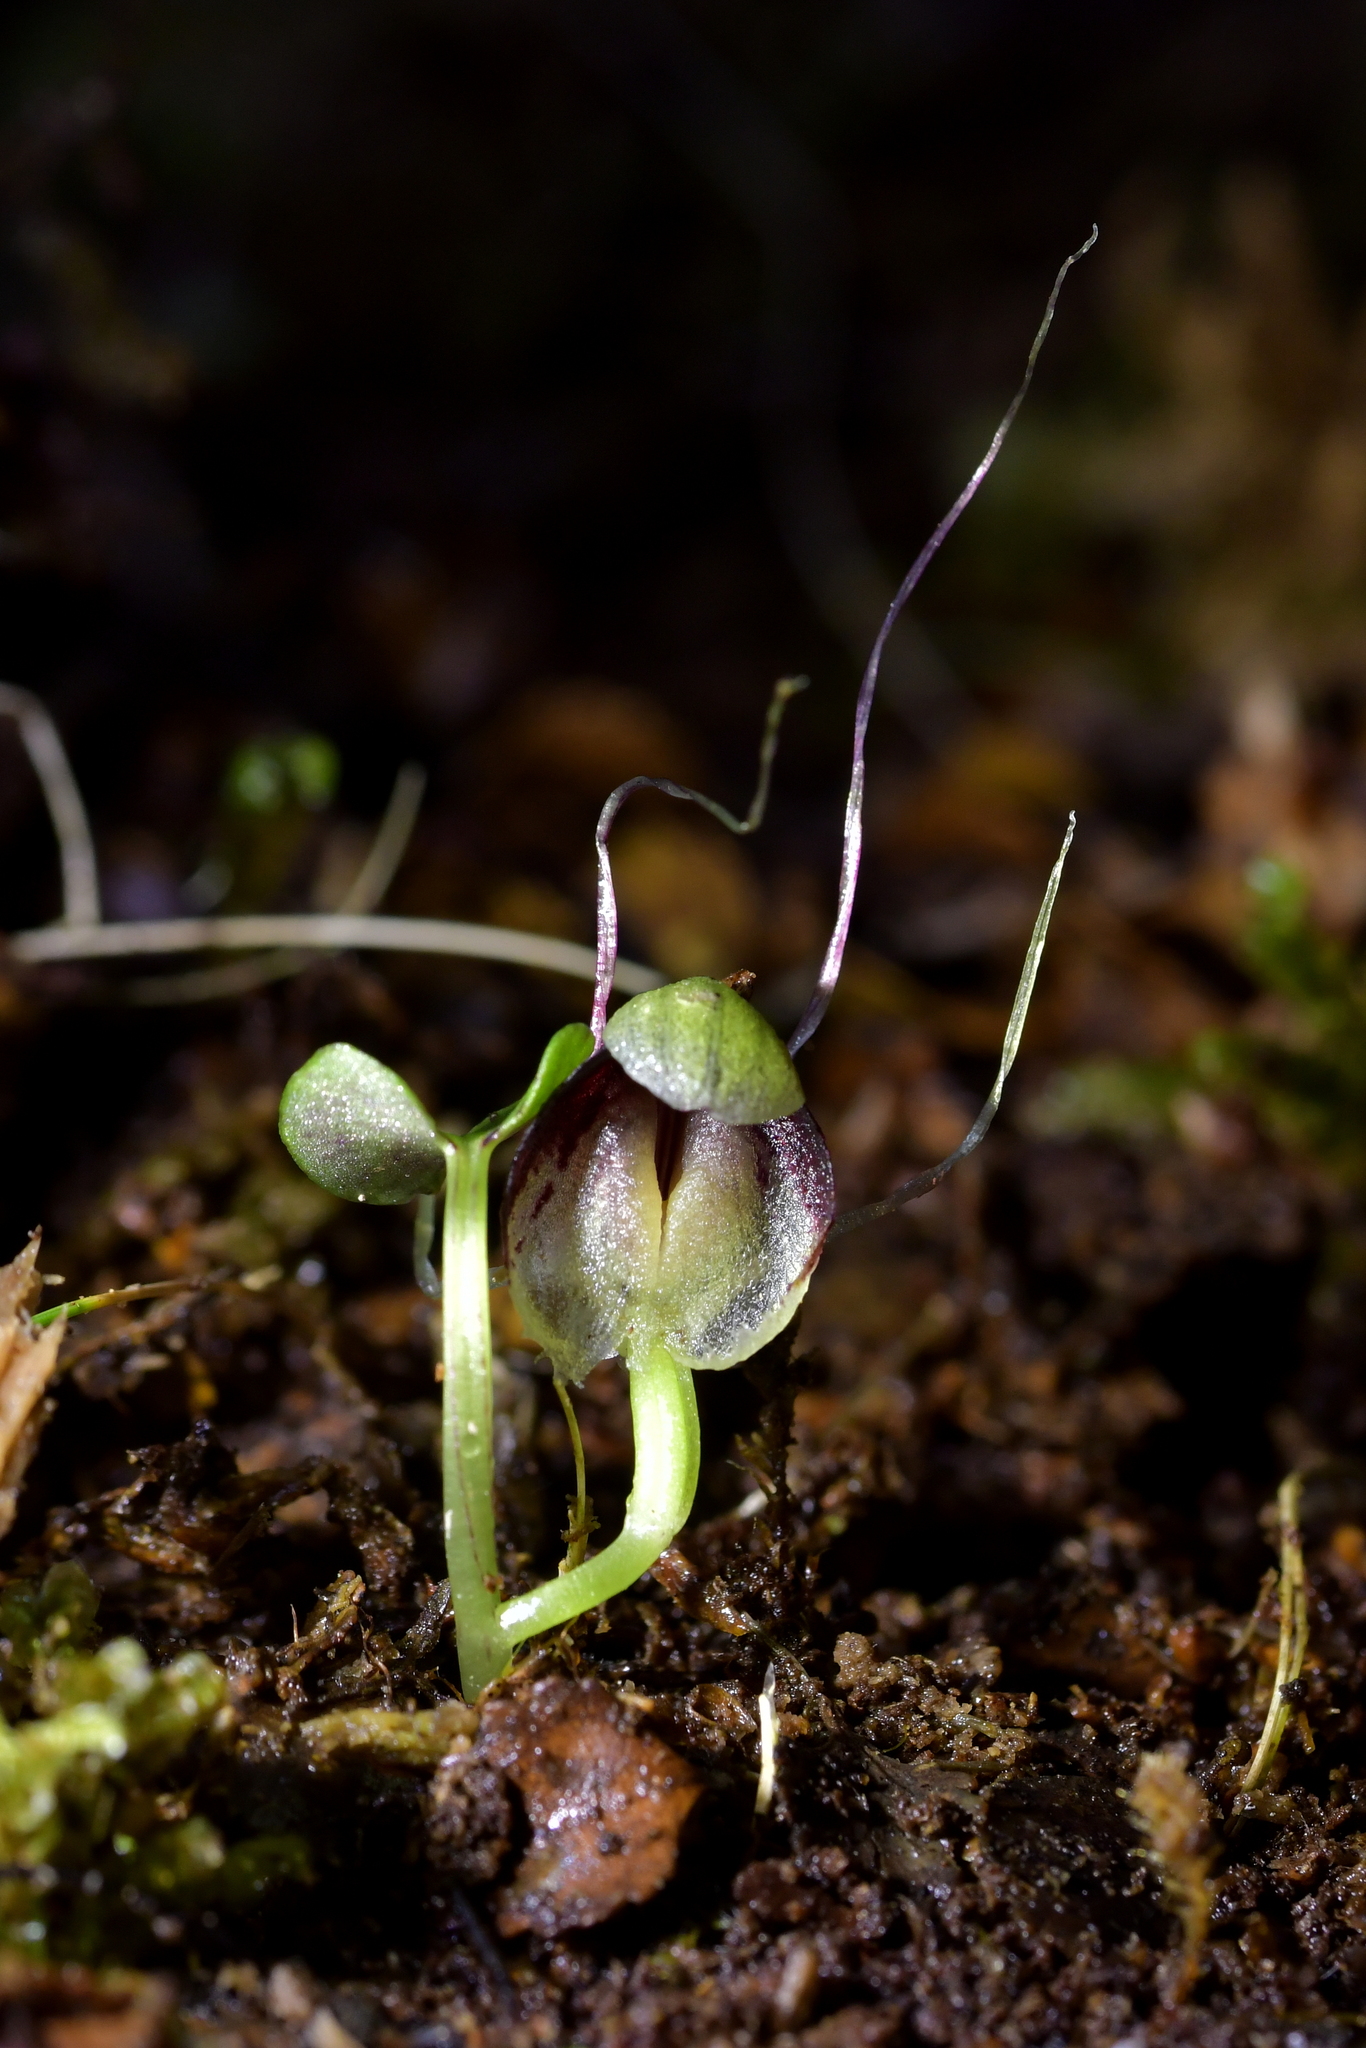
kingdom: Plantae
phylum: Tracheophyta
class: Liliopsida
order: Asparagales
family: Orchidaceae
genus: Corybas
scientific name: Corybas trilobus
